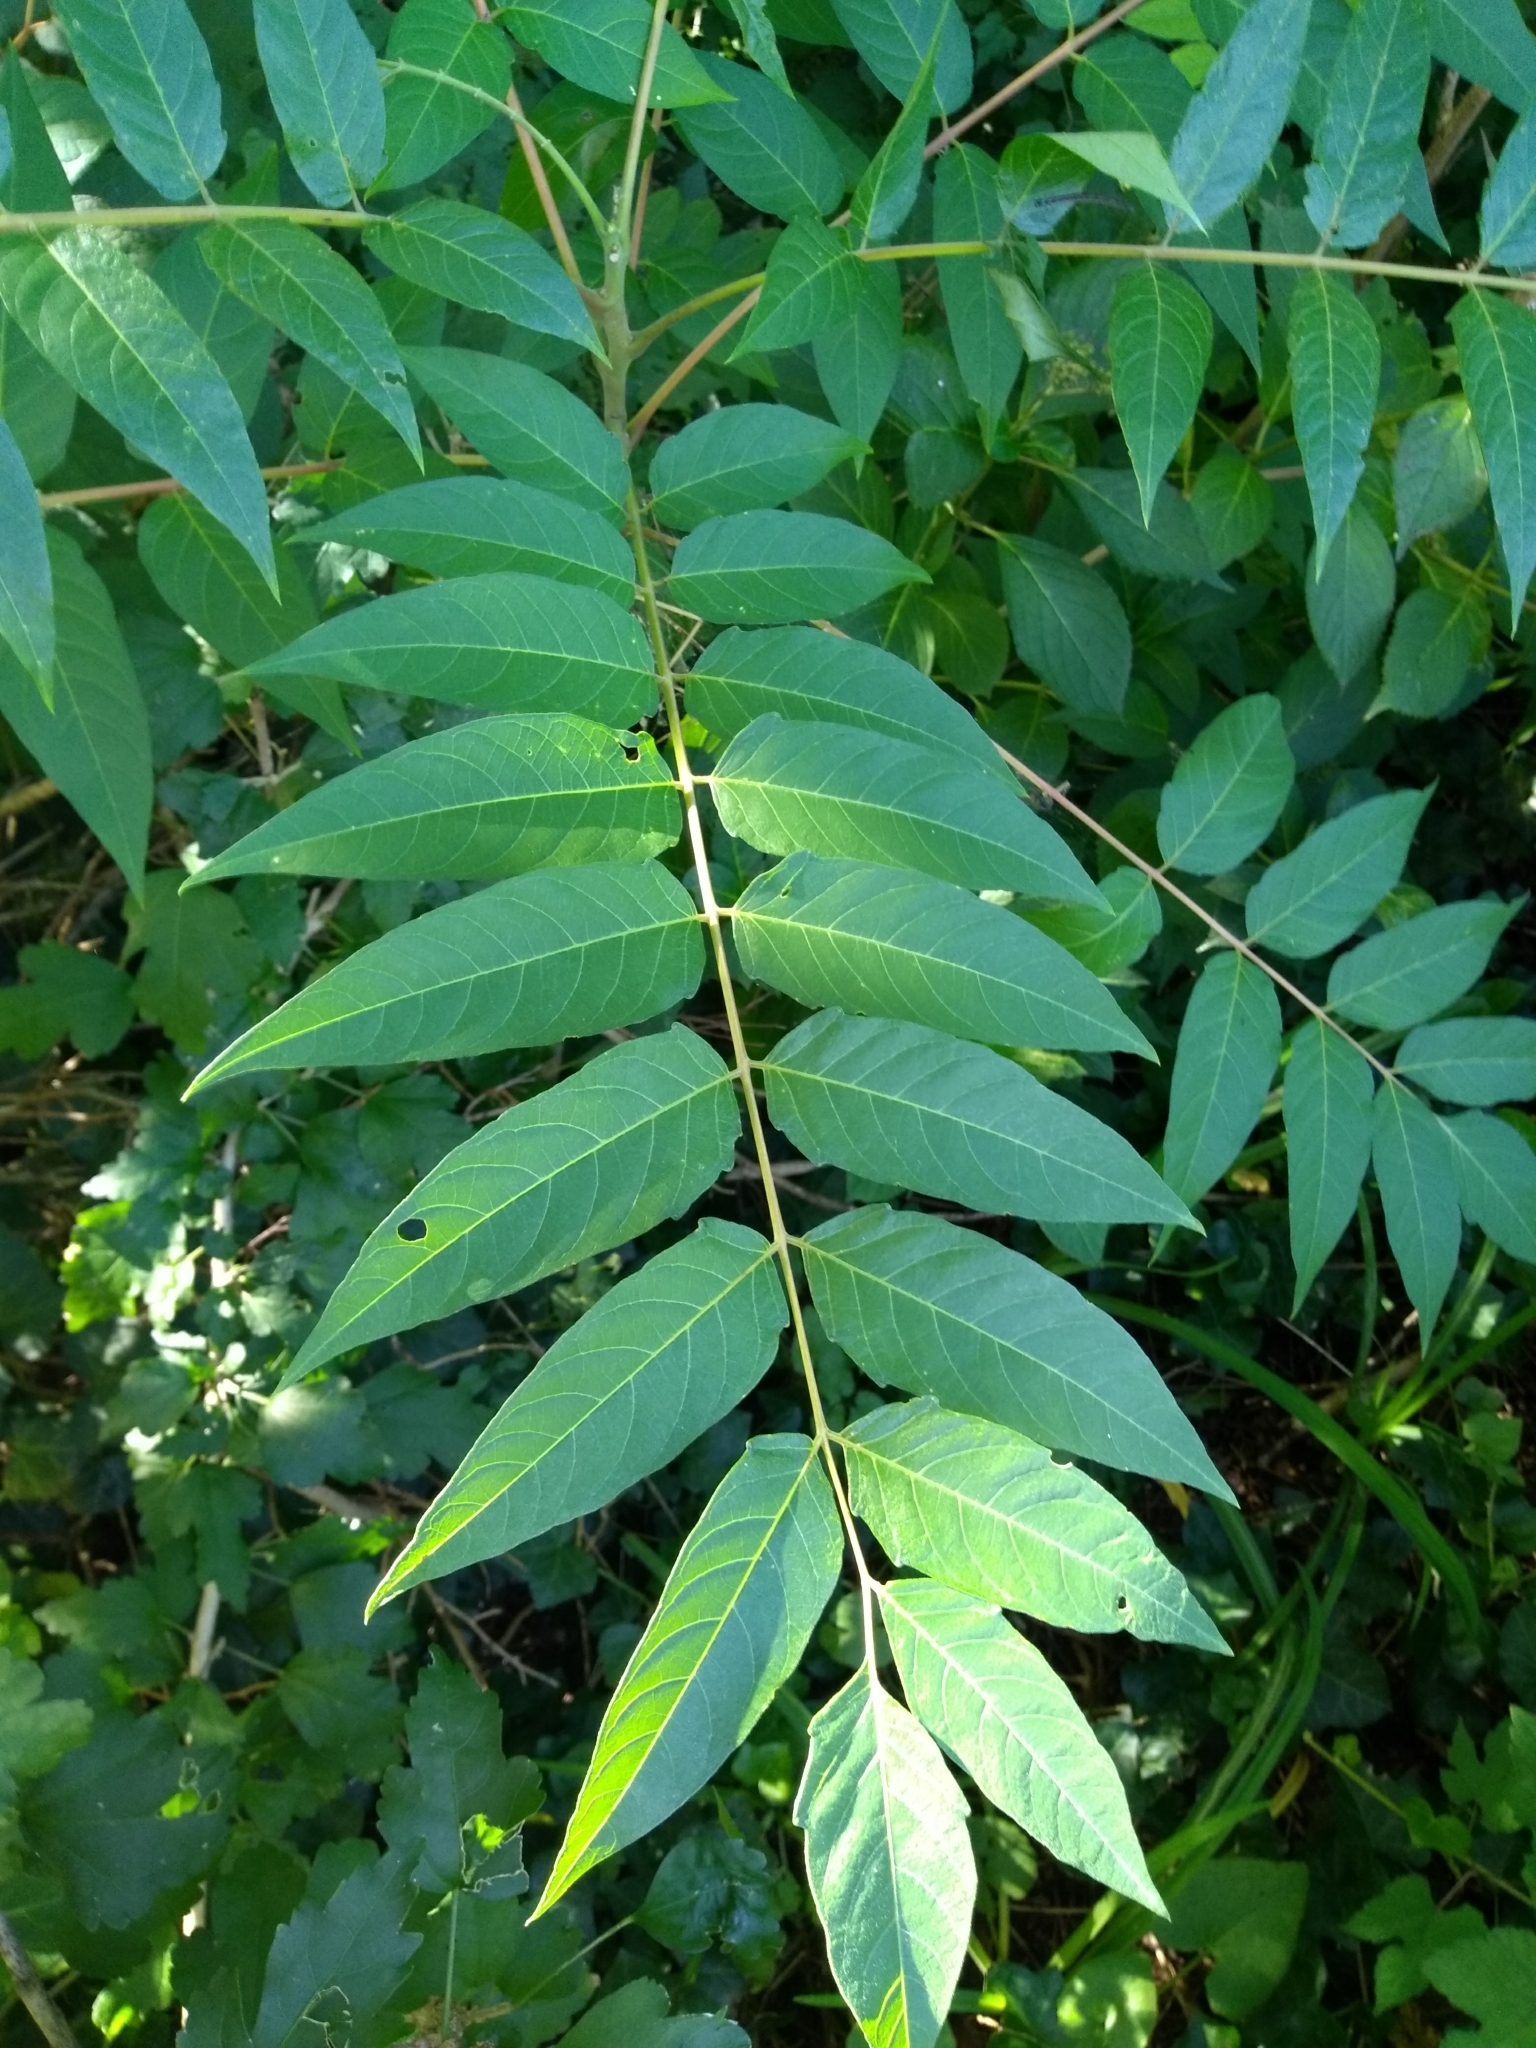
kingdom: Plantae
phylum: Tracheophyta
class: Magnoliopsida
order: Sapindales
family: Simaroubaceae
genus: Ailanthus
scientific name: Ailanthus altissima
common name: Tree-of-heaven
